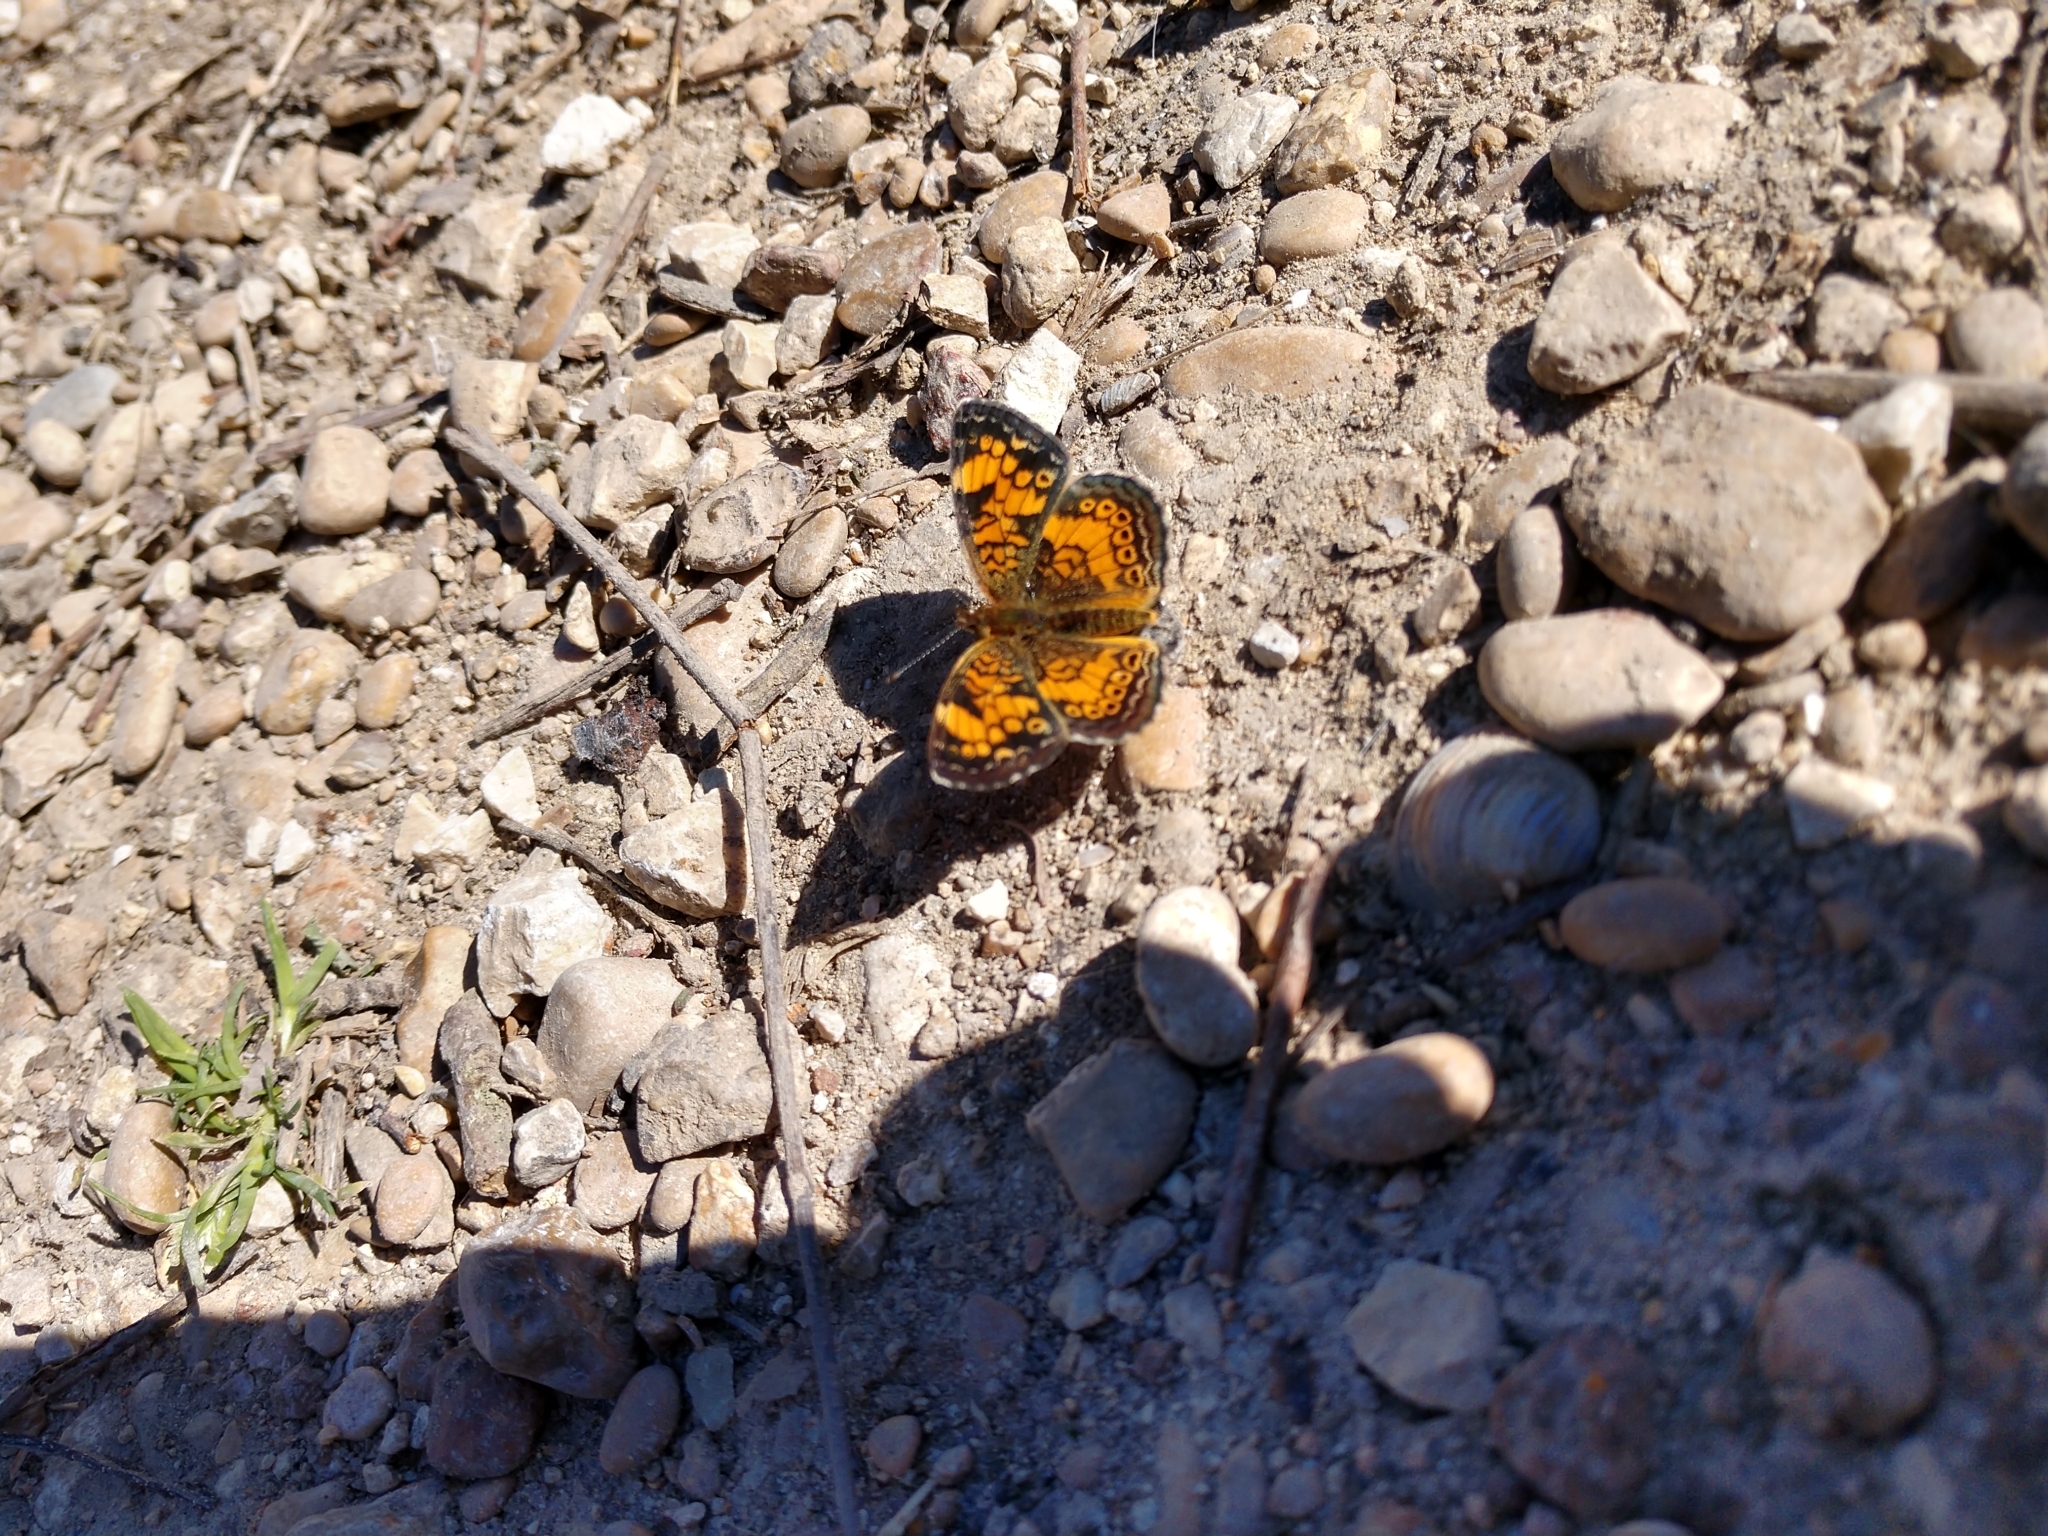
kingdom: Animalia
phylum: Arthropoda
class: Insecta
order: Lepidoptera
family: Nymphalidae
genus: Phyciodes
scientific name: Phyciodes tharos
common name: Pearl crescent
